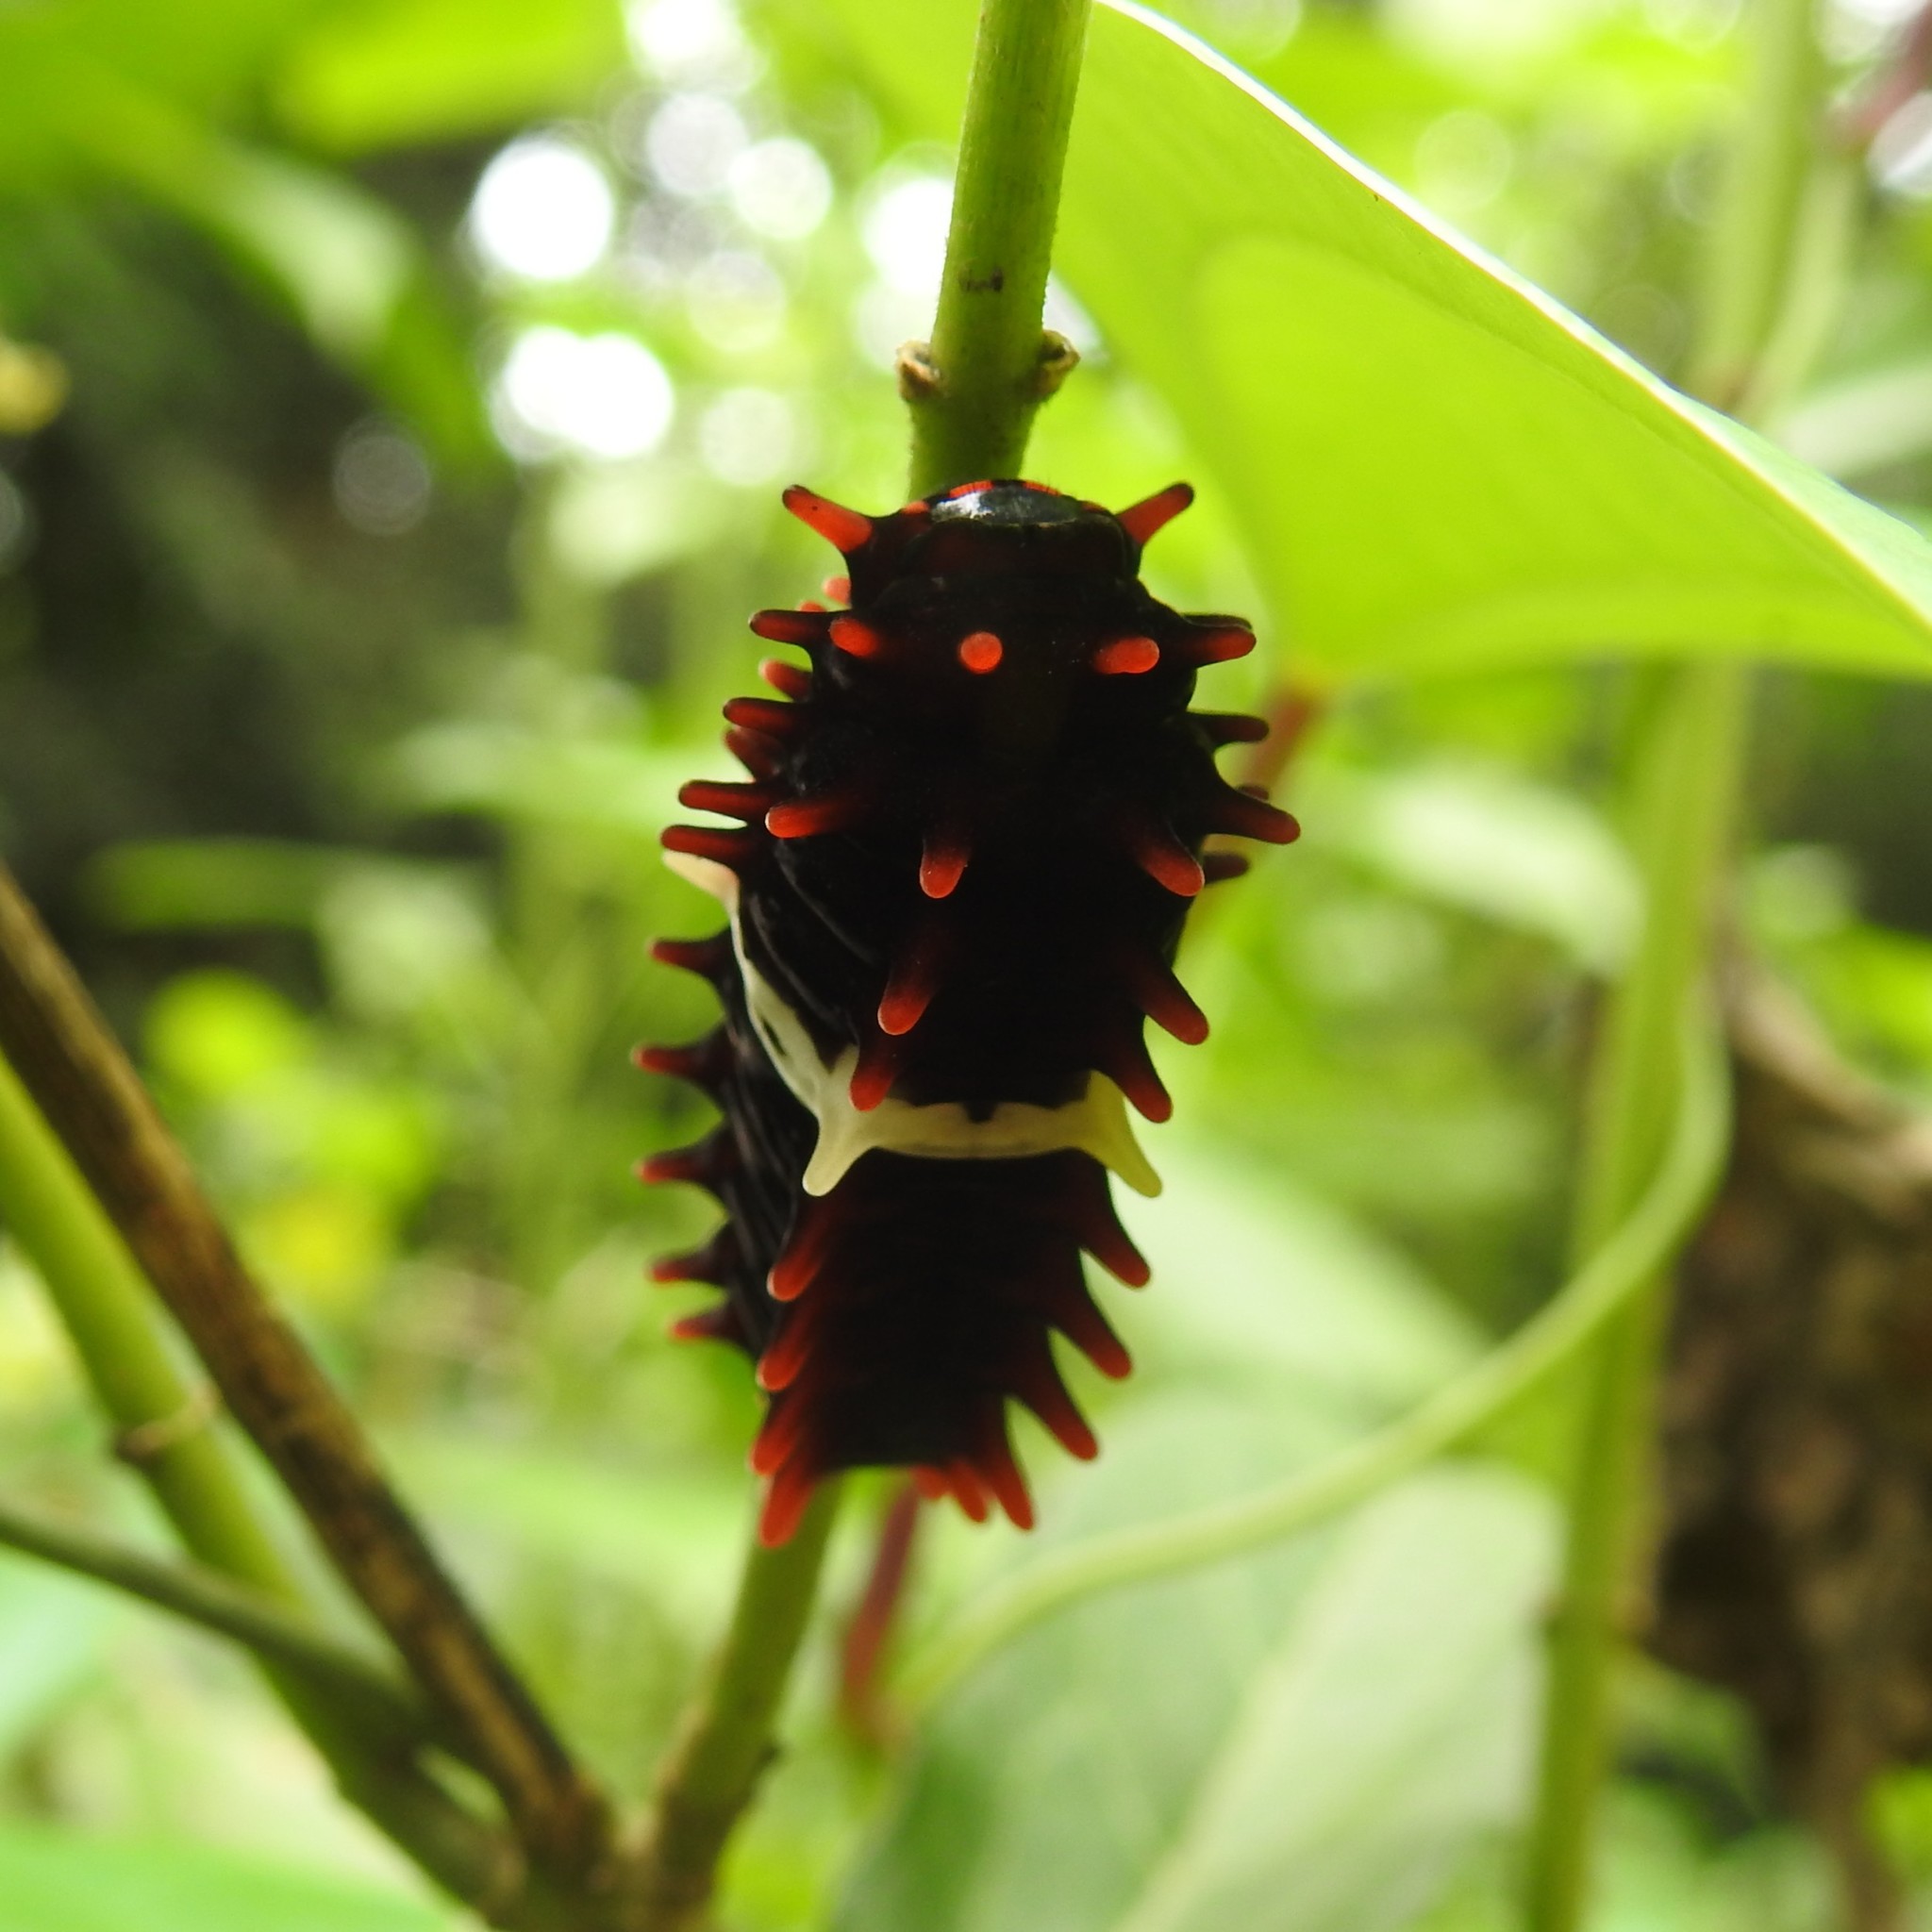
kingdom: Animalia
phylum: Arthropoda
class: Insecta
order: Lepidoptera
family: Papilionidae
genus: Pachliopta
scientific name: Pachliopta aristolochiae
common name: Common rose
